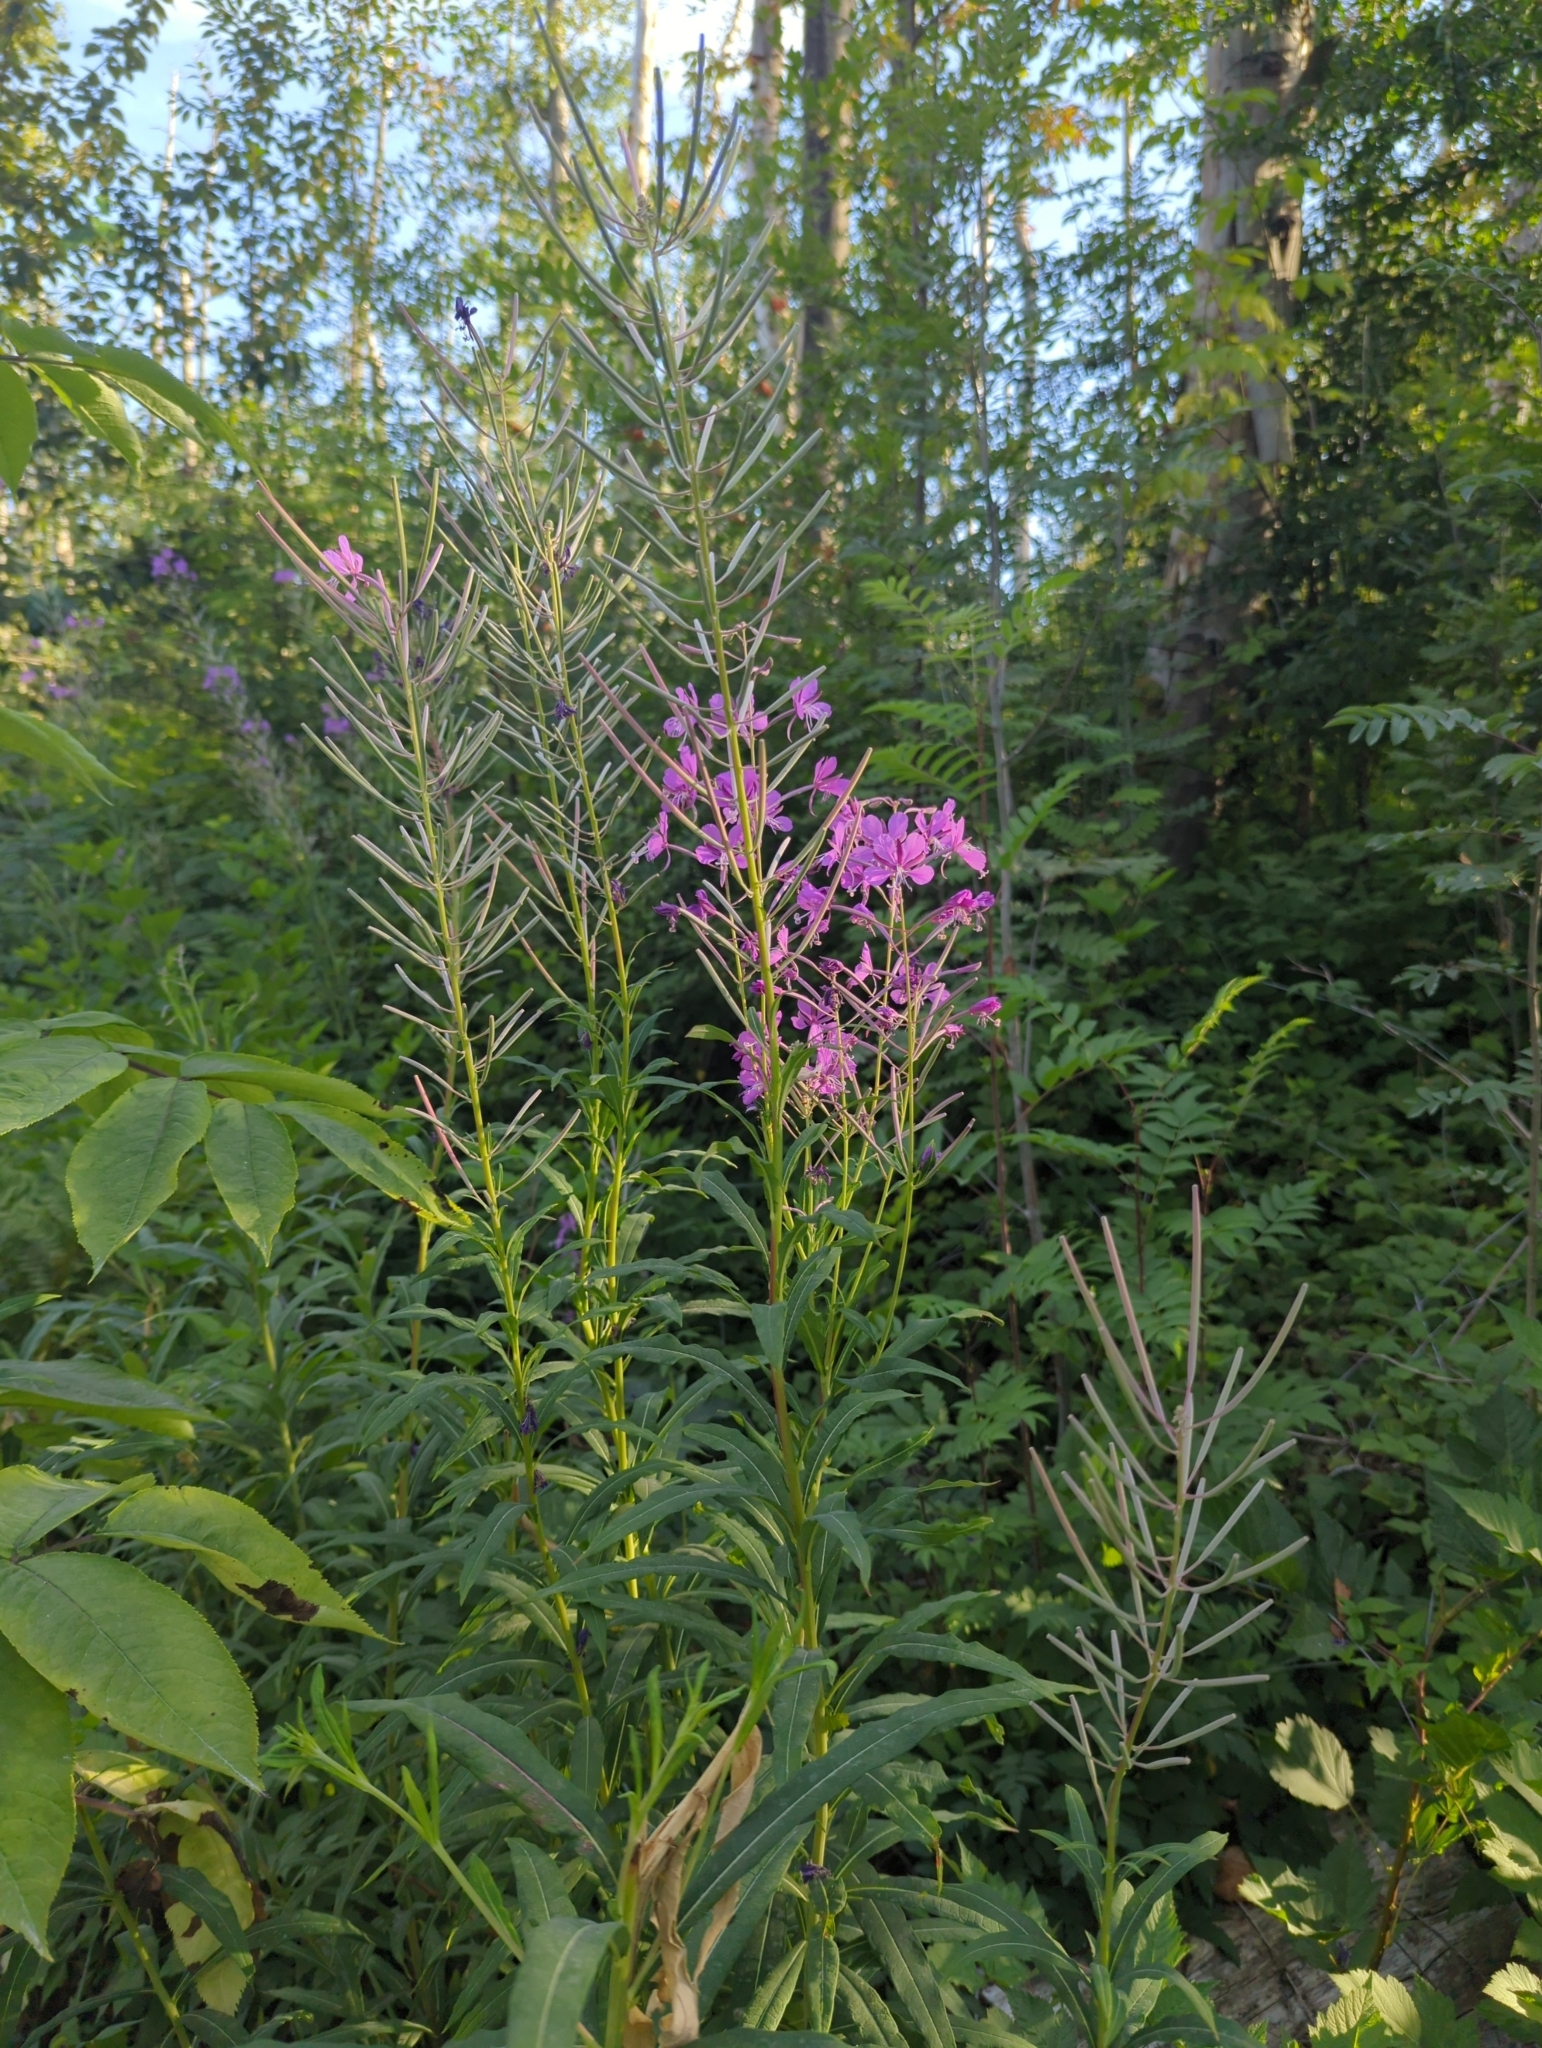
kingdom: Plantae
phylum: Tracheophyta
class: Magnoliopsida
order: Myrtales
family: Onagraceae
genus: Chamaenerion
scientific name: Chamaenerion angustifolium
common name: Fireweed
